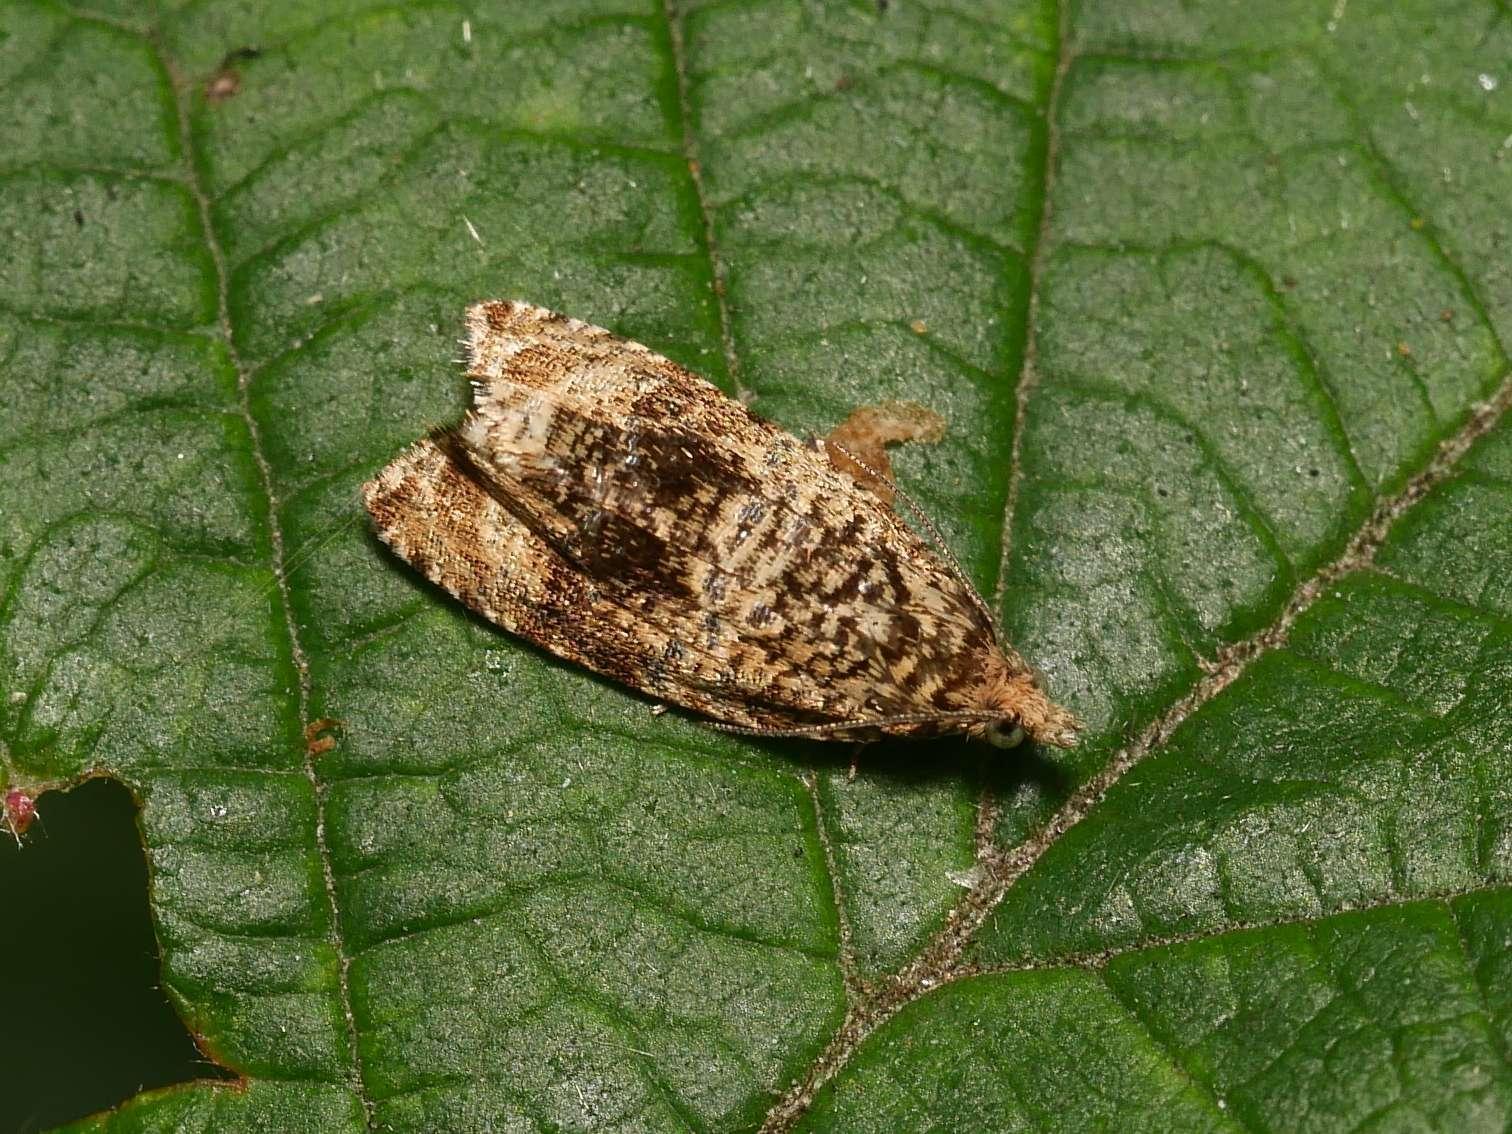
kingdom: Animalia
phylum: Arthropoda
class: Insecta
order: Lepidoptera
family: Tortricidae
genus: Syricoris
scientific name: Syricoris lacunana
